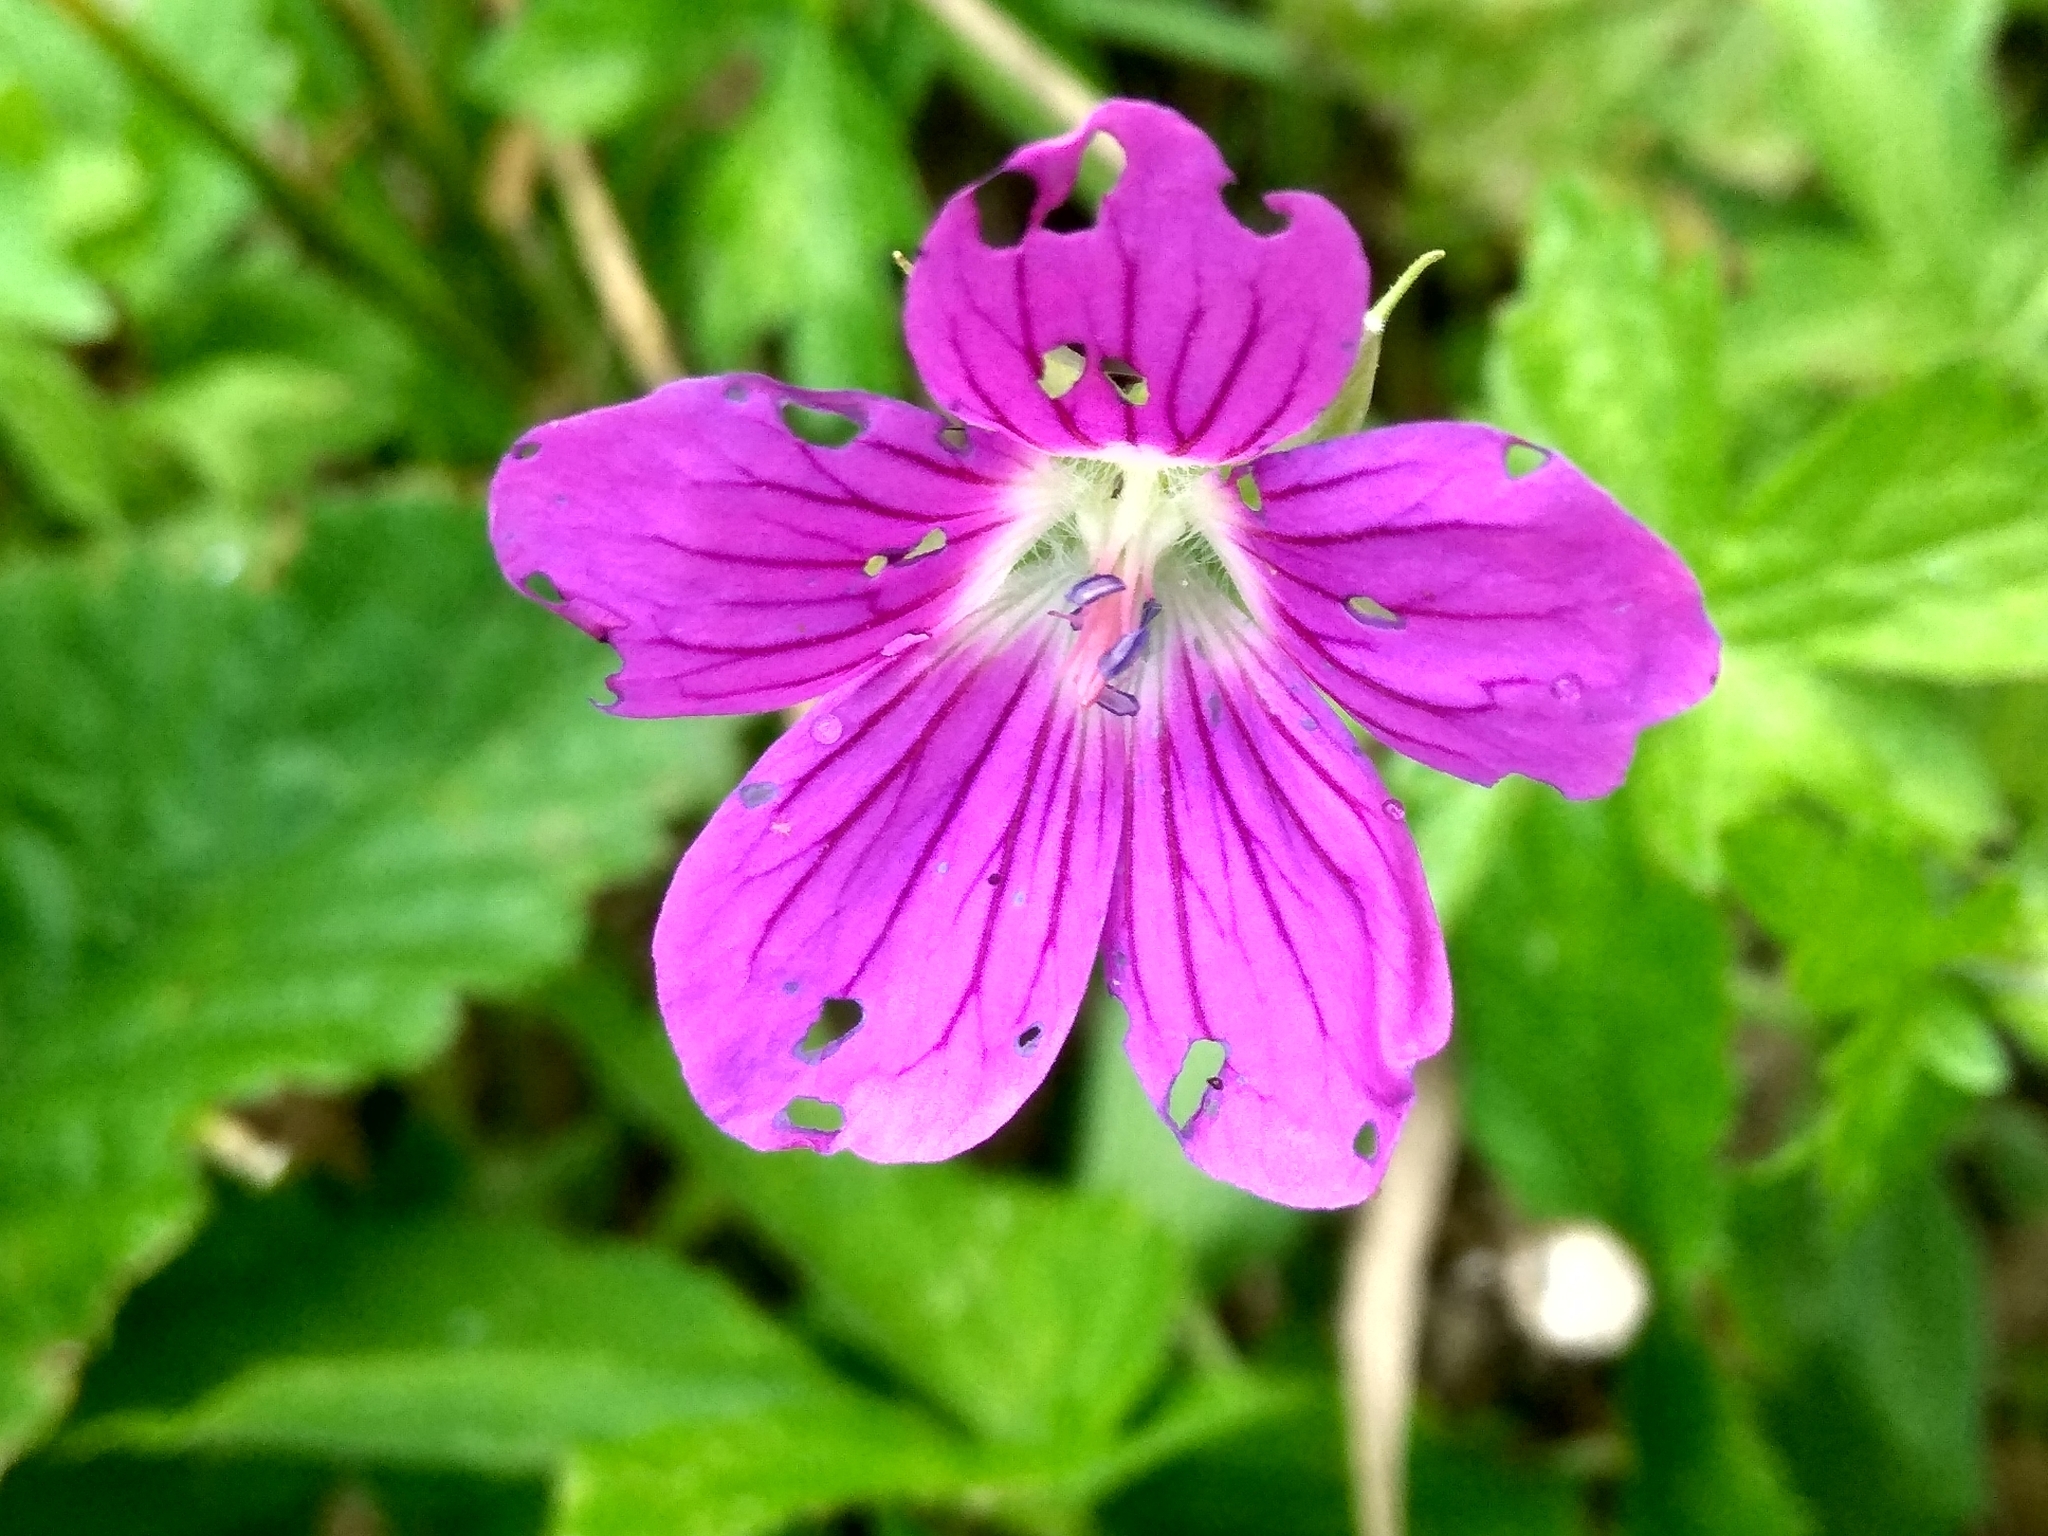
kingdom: Plantae
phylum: Tracheophyta
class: Magnoliopsida
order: Geraniales
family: Geraniaceae
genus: Geranium
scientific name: Geranium palustre
